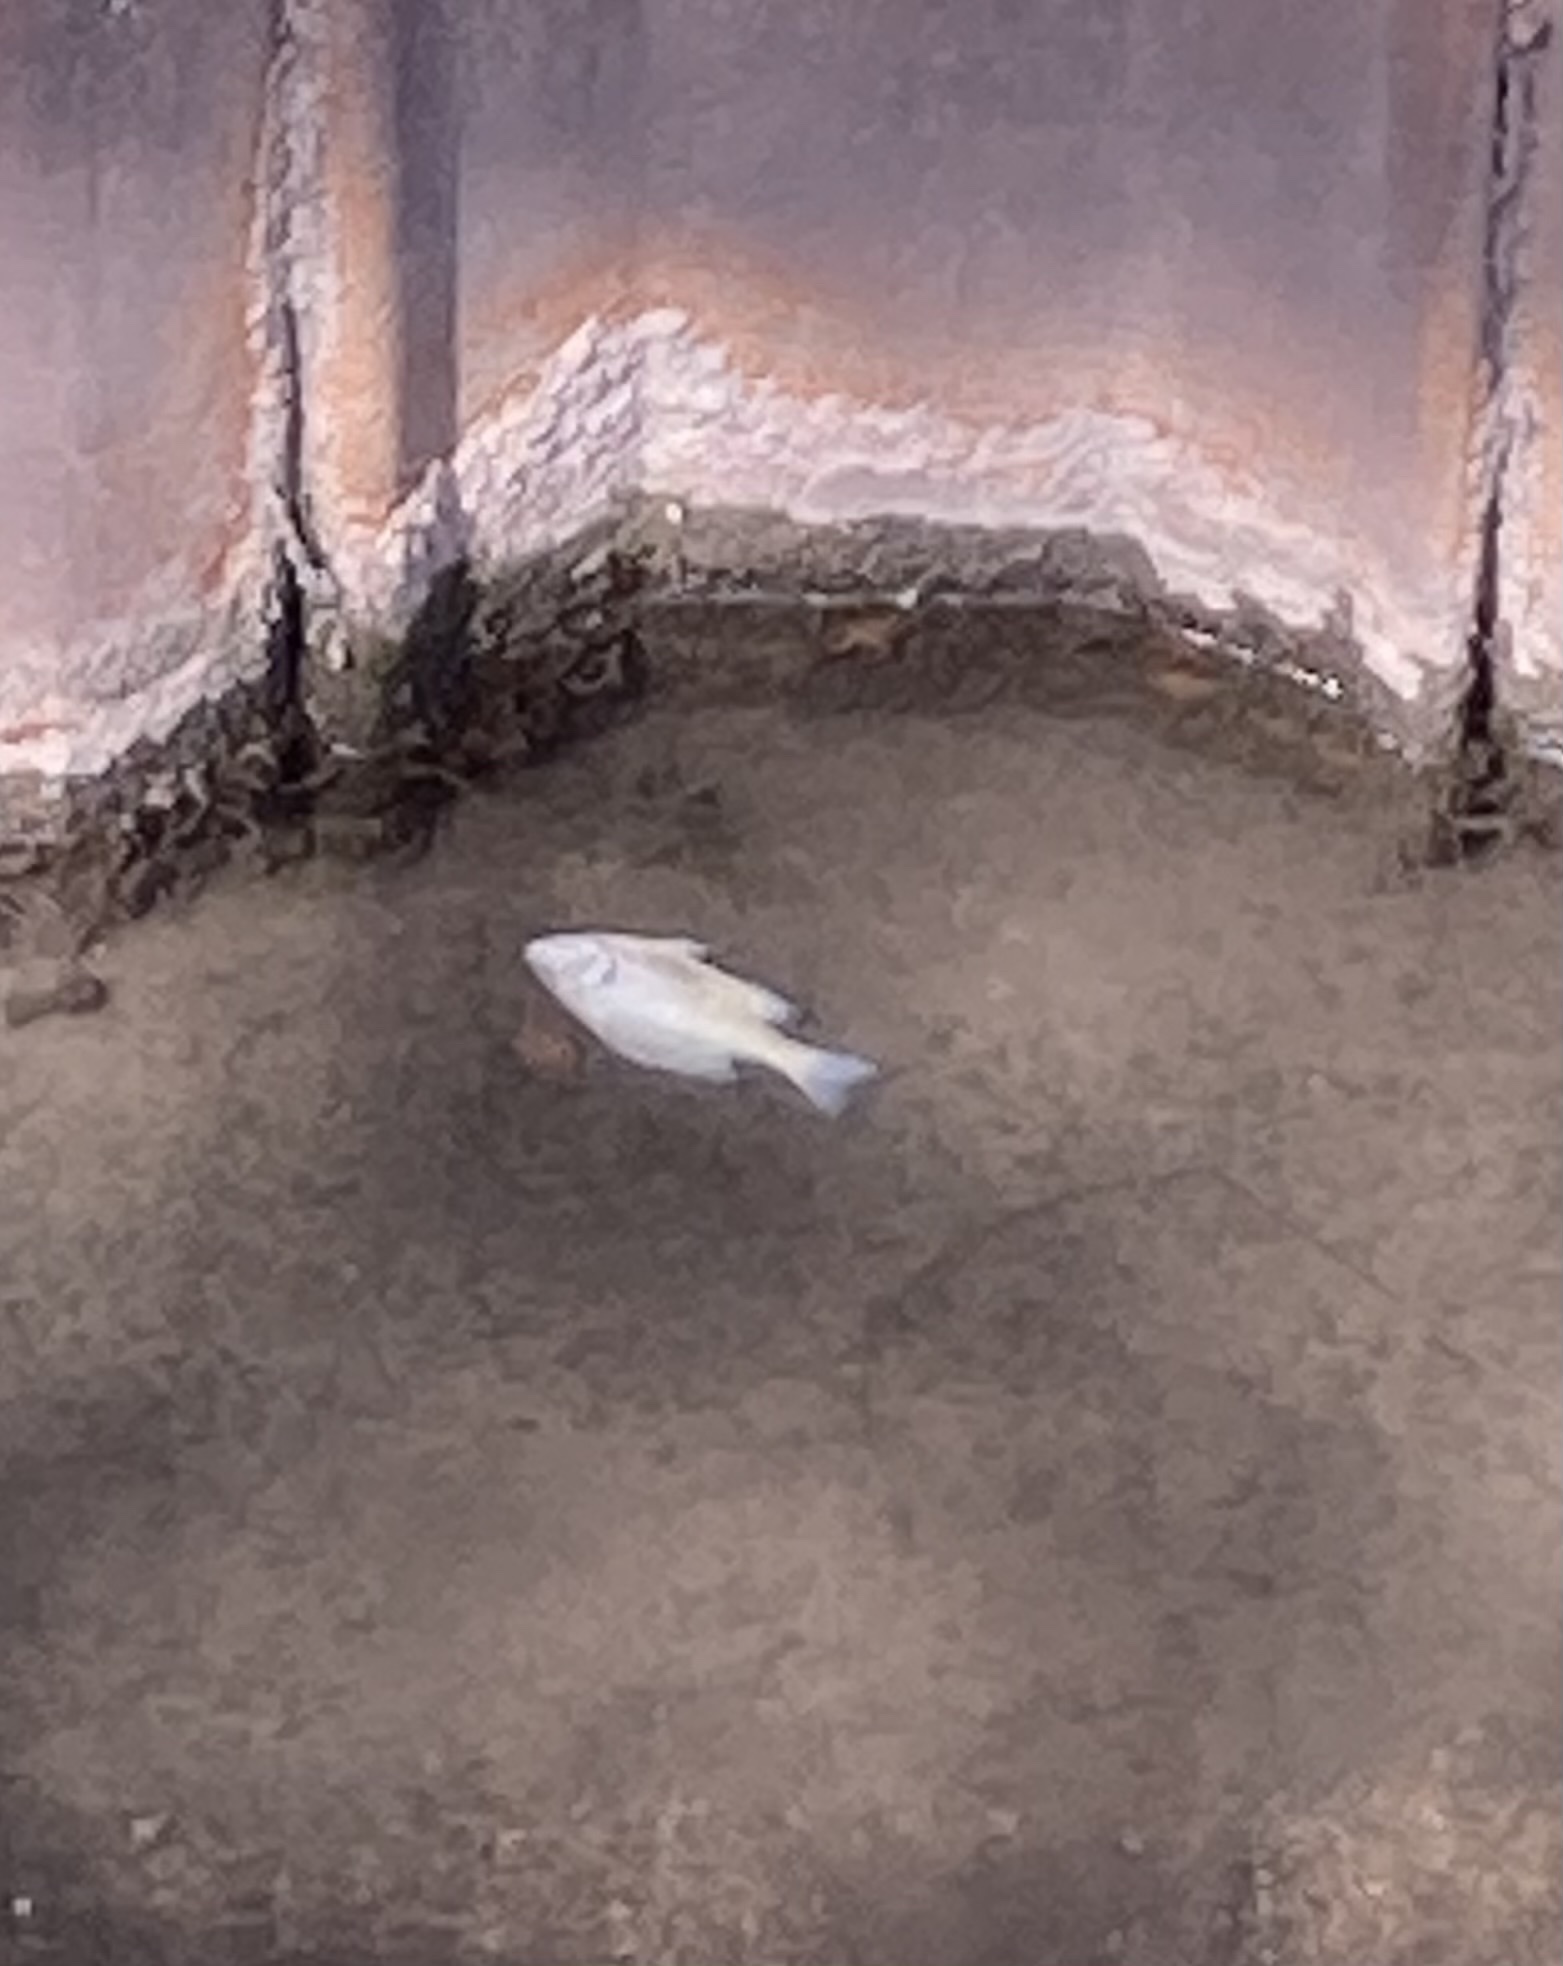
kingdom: Animalia
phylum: Chordata
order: Perciformes
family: Centrarchidae
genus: Lepomis
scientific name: Lepomis
